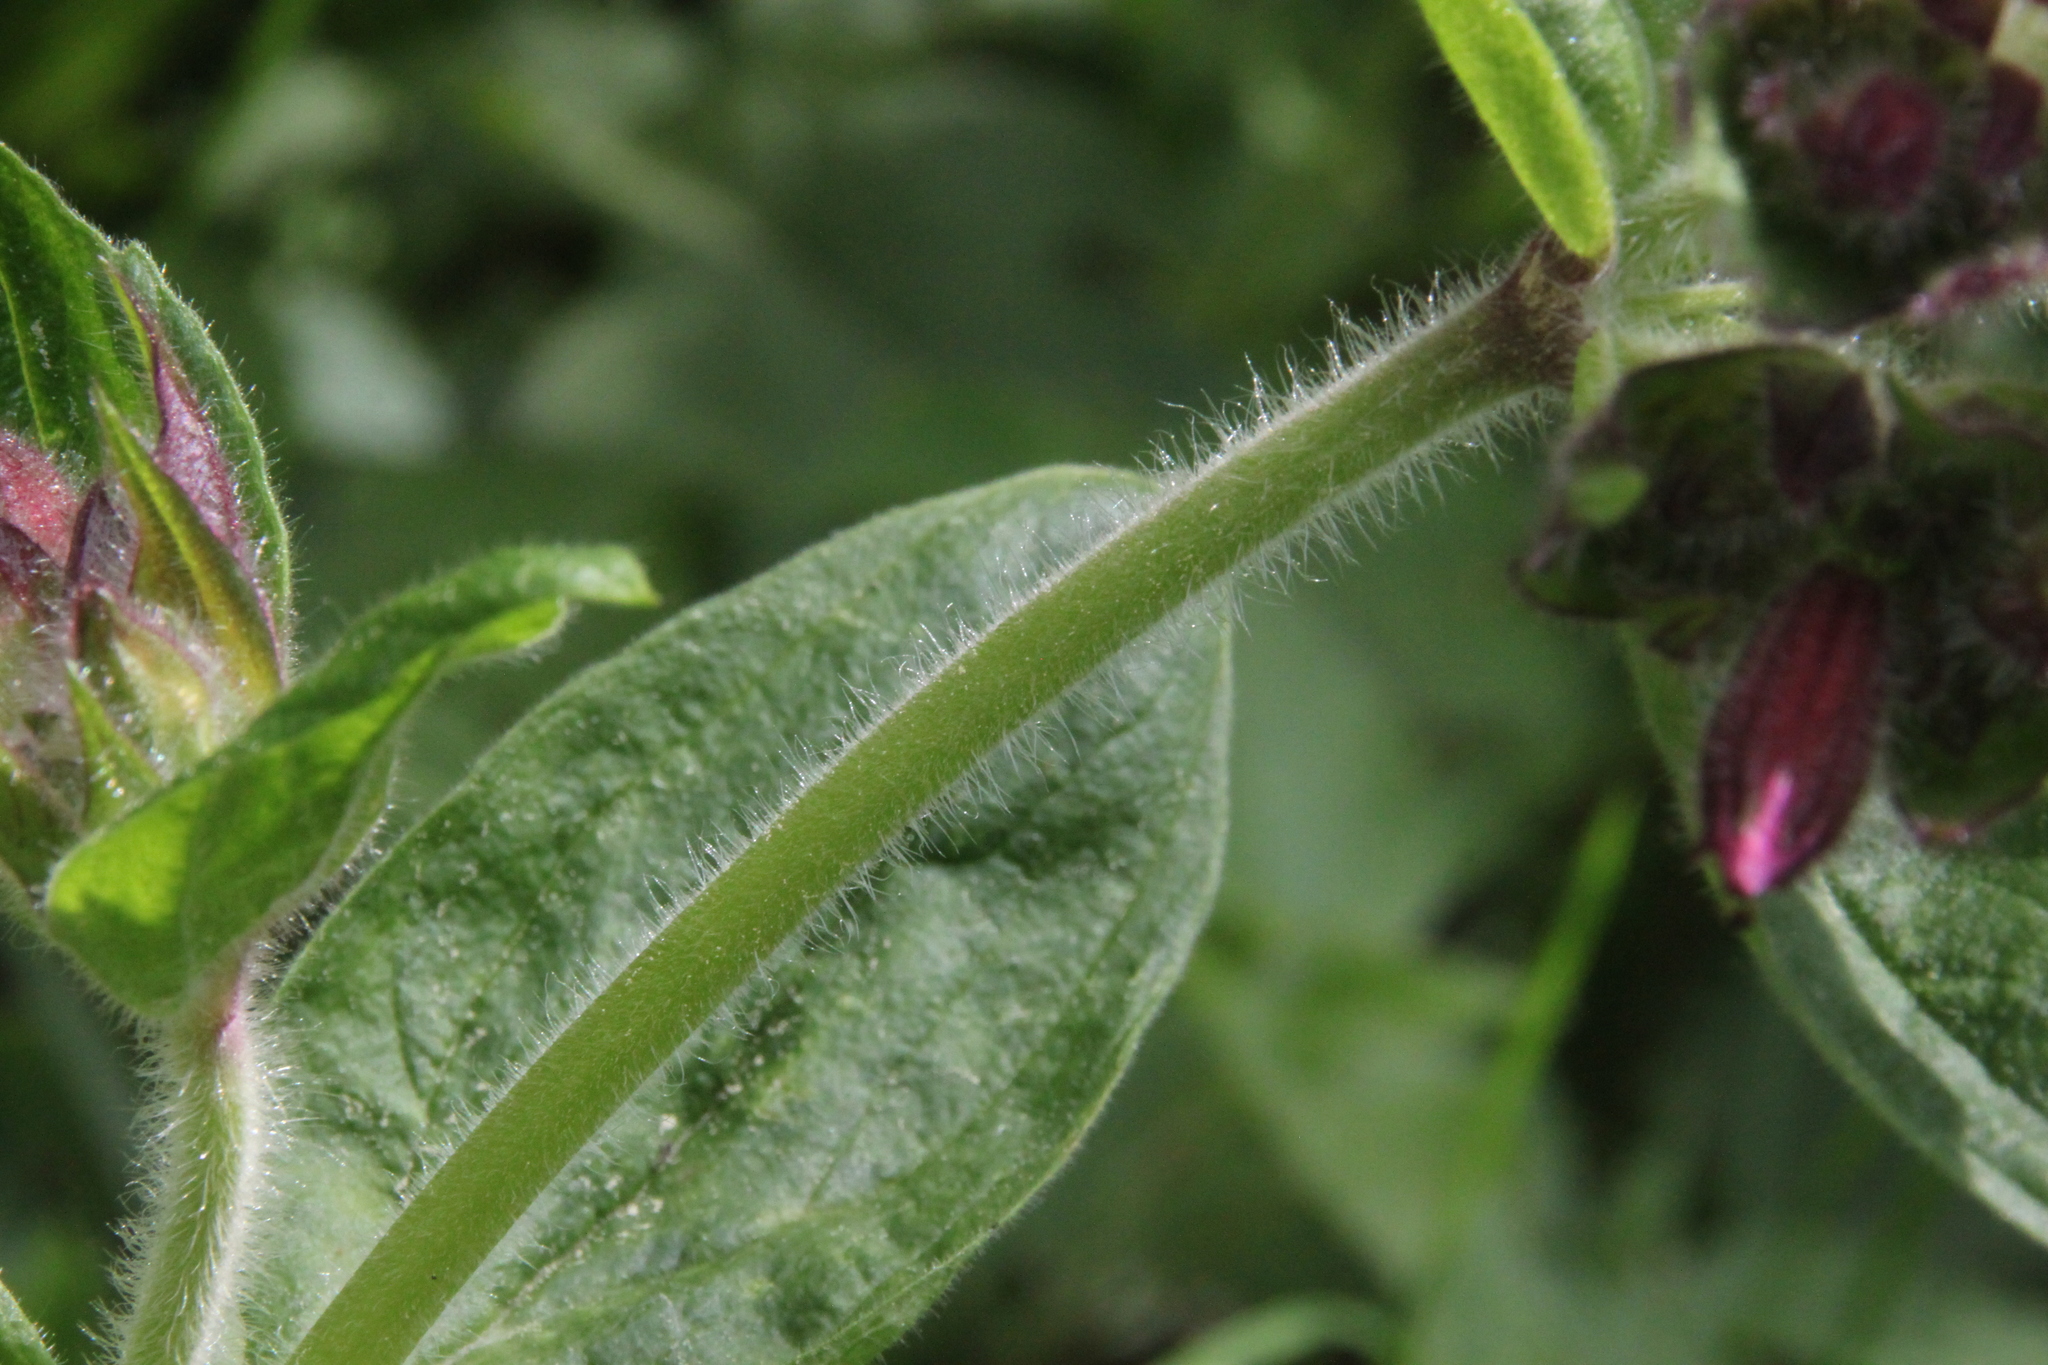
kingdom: Plantae
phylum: Tracheophyta
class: Magnoliopsida
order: Caryophyllales
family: Caryophyllaceae
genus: Silene
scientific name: Silene dioica
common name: Red campion
